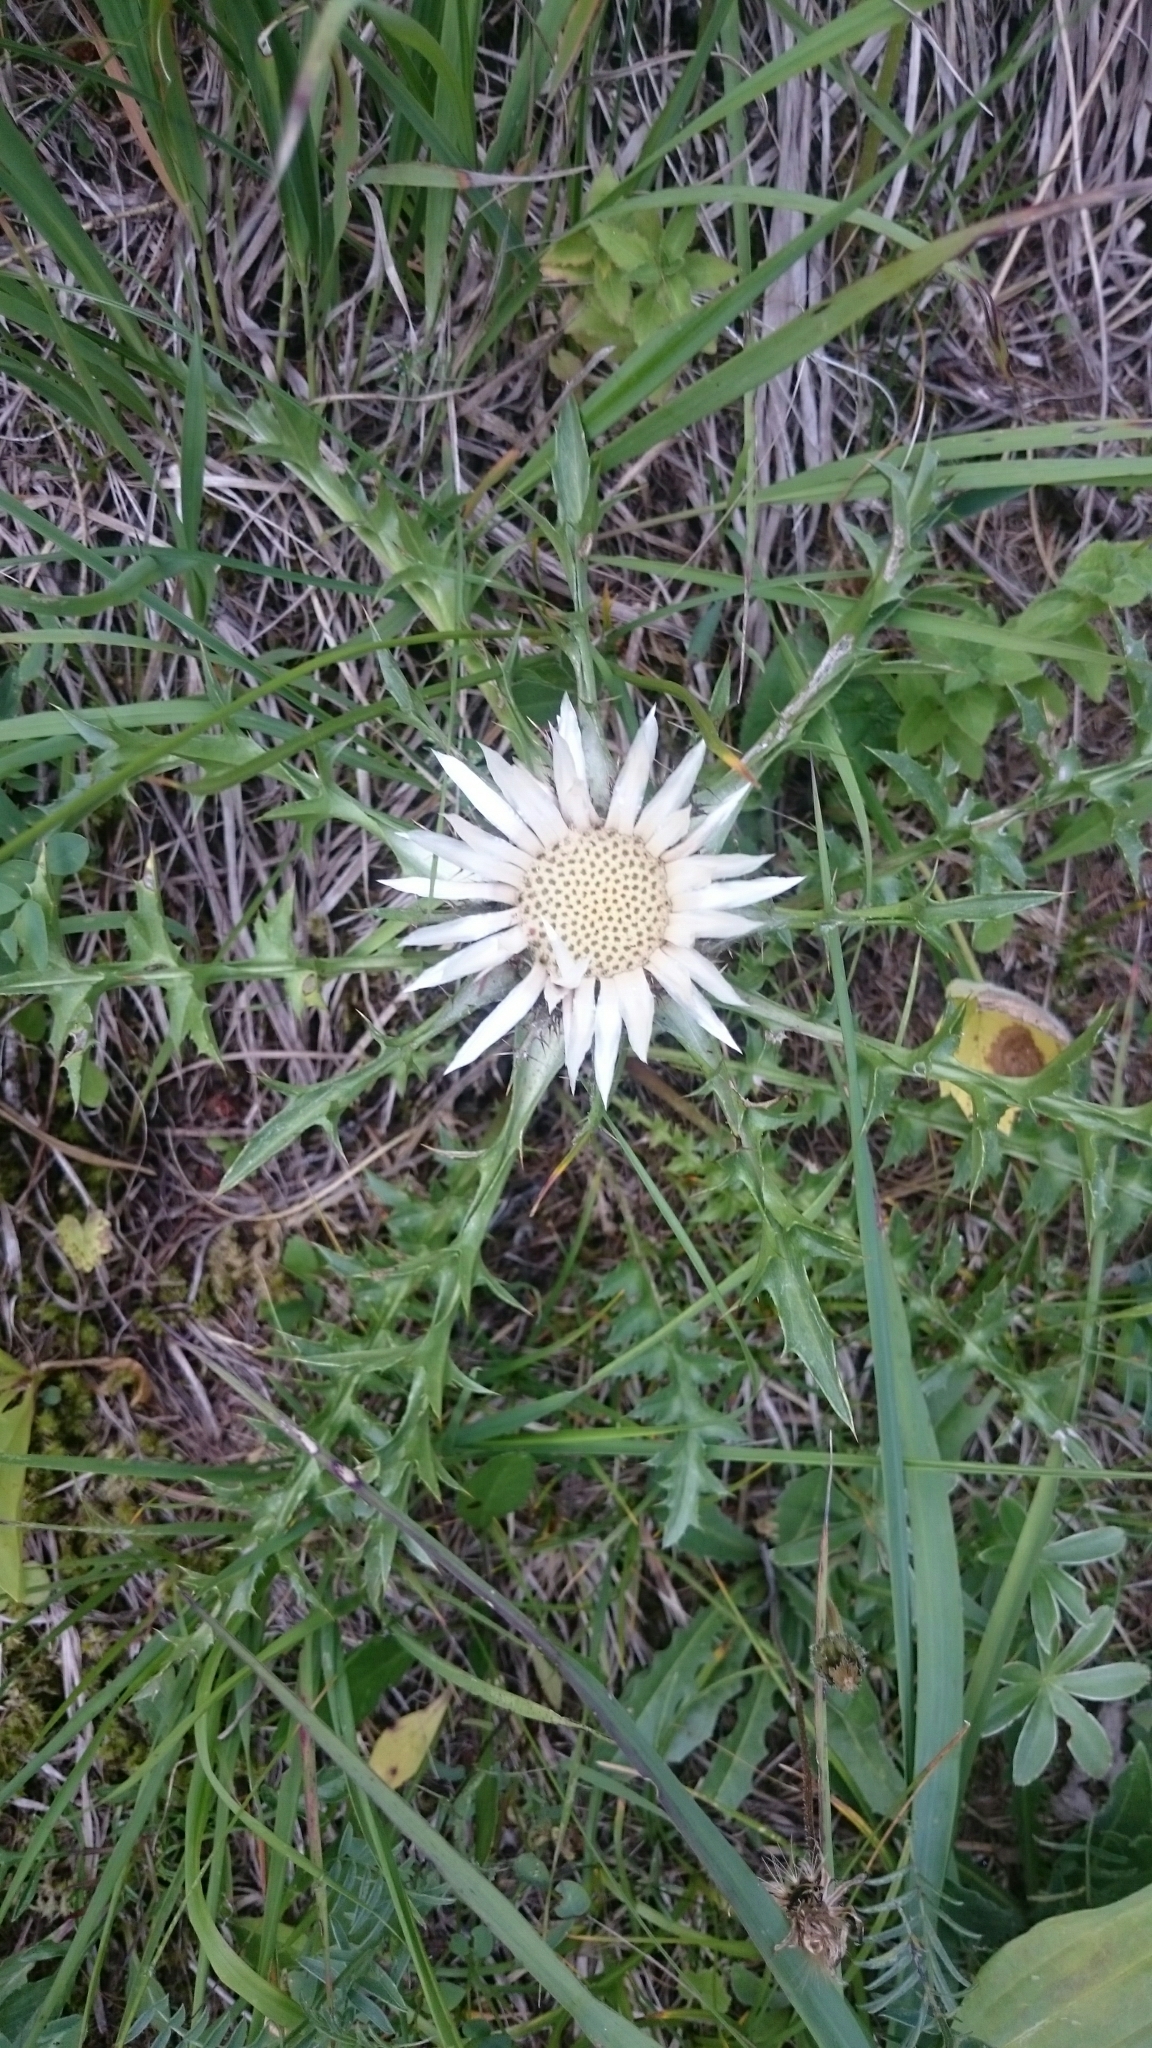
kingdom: Plantae
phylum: Tracheophyta
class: Magnoliopsida
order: Asterales
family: Asteraceae
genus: Carlina
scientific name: Carlina acaulis
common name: Stemless carline thistle
